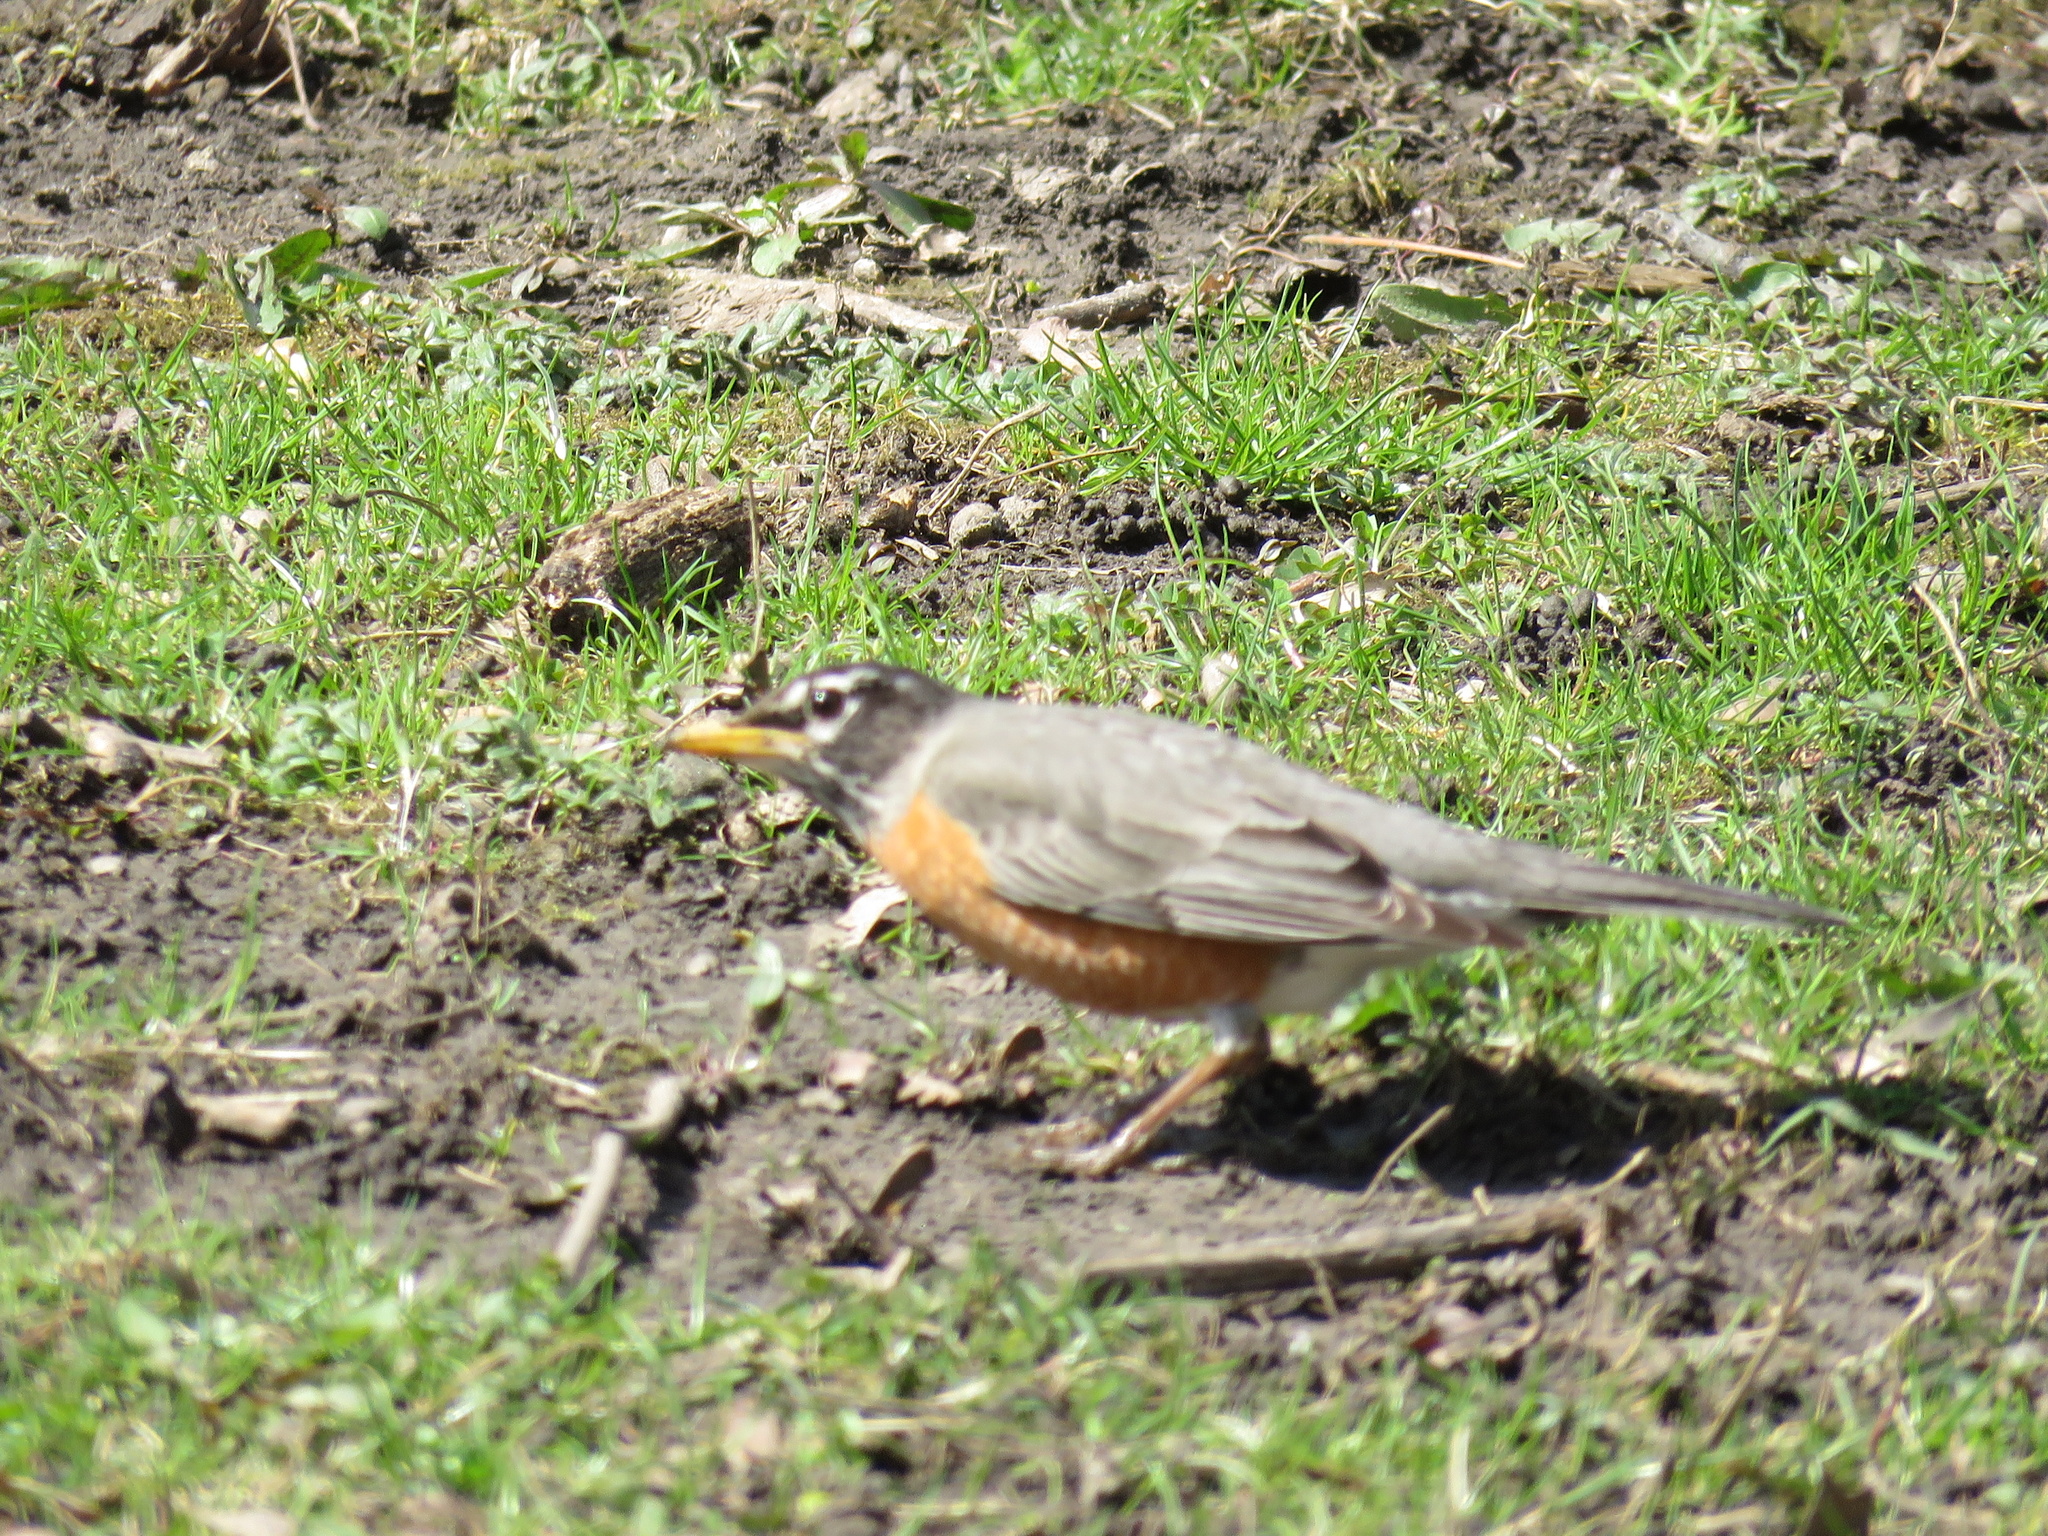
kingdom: Animalia
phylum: Chordata
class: Aves
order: Passeriformes
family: Turdidae
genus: Turdus
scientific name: Turdus migratorius
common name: American robin
